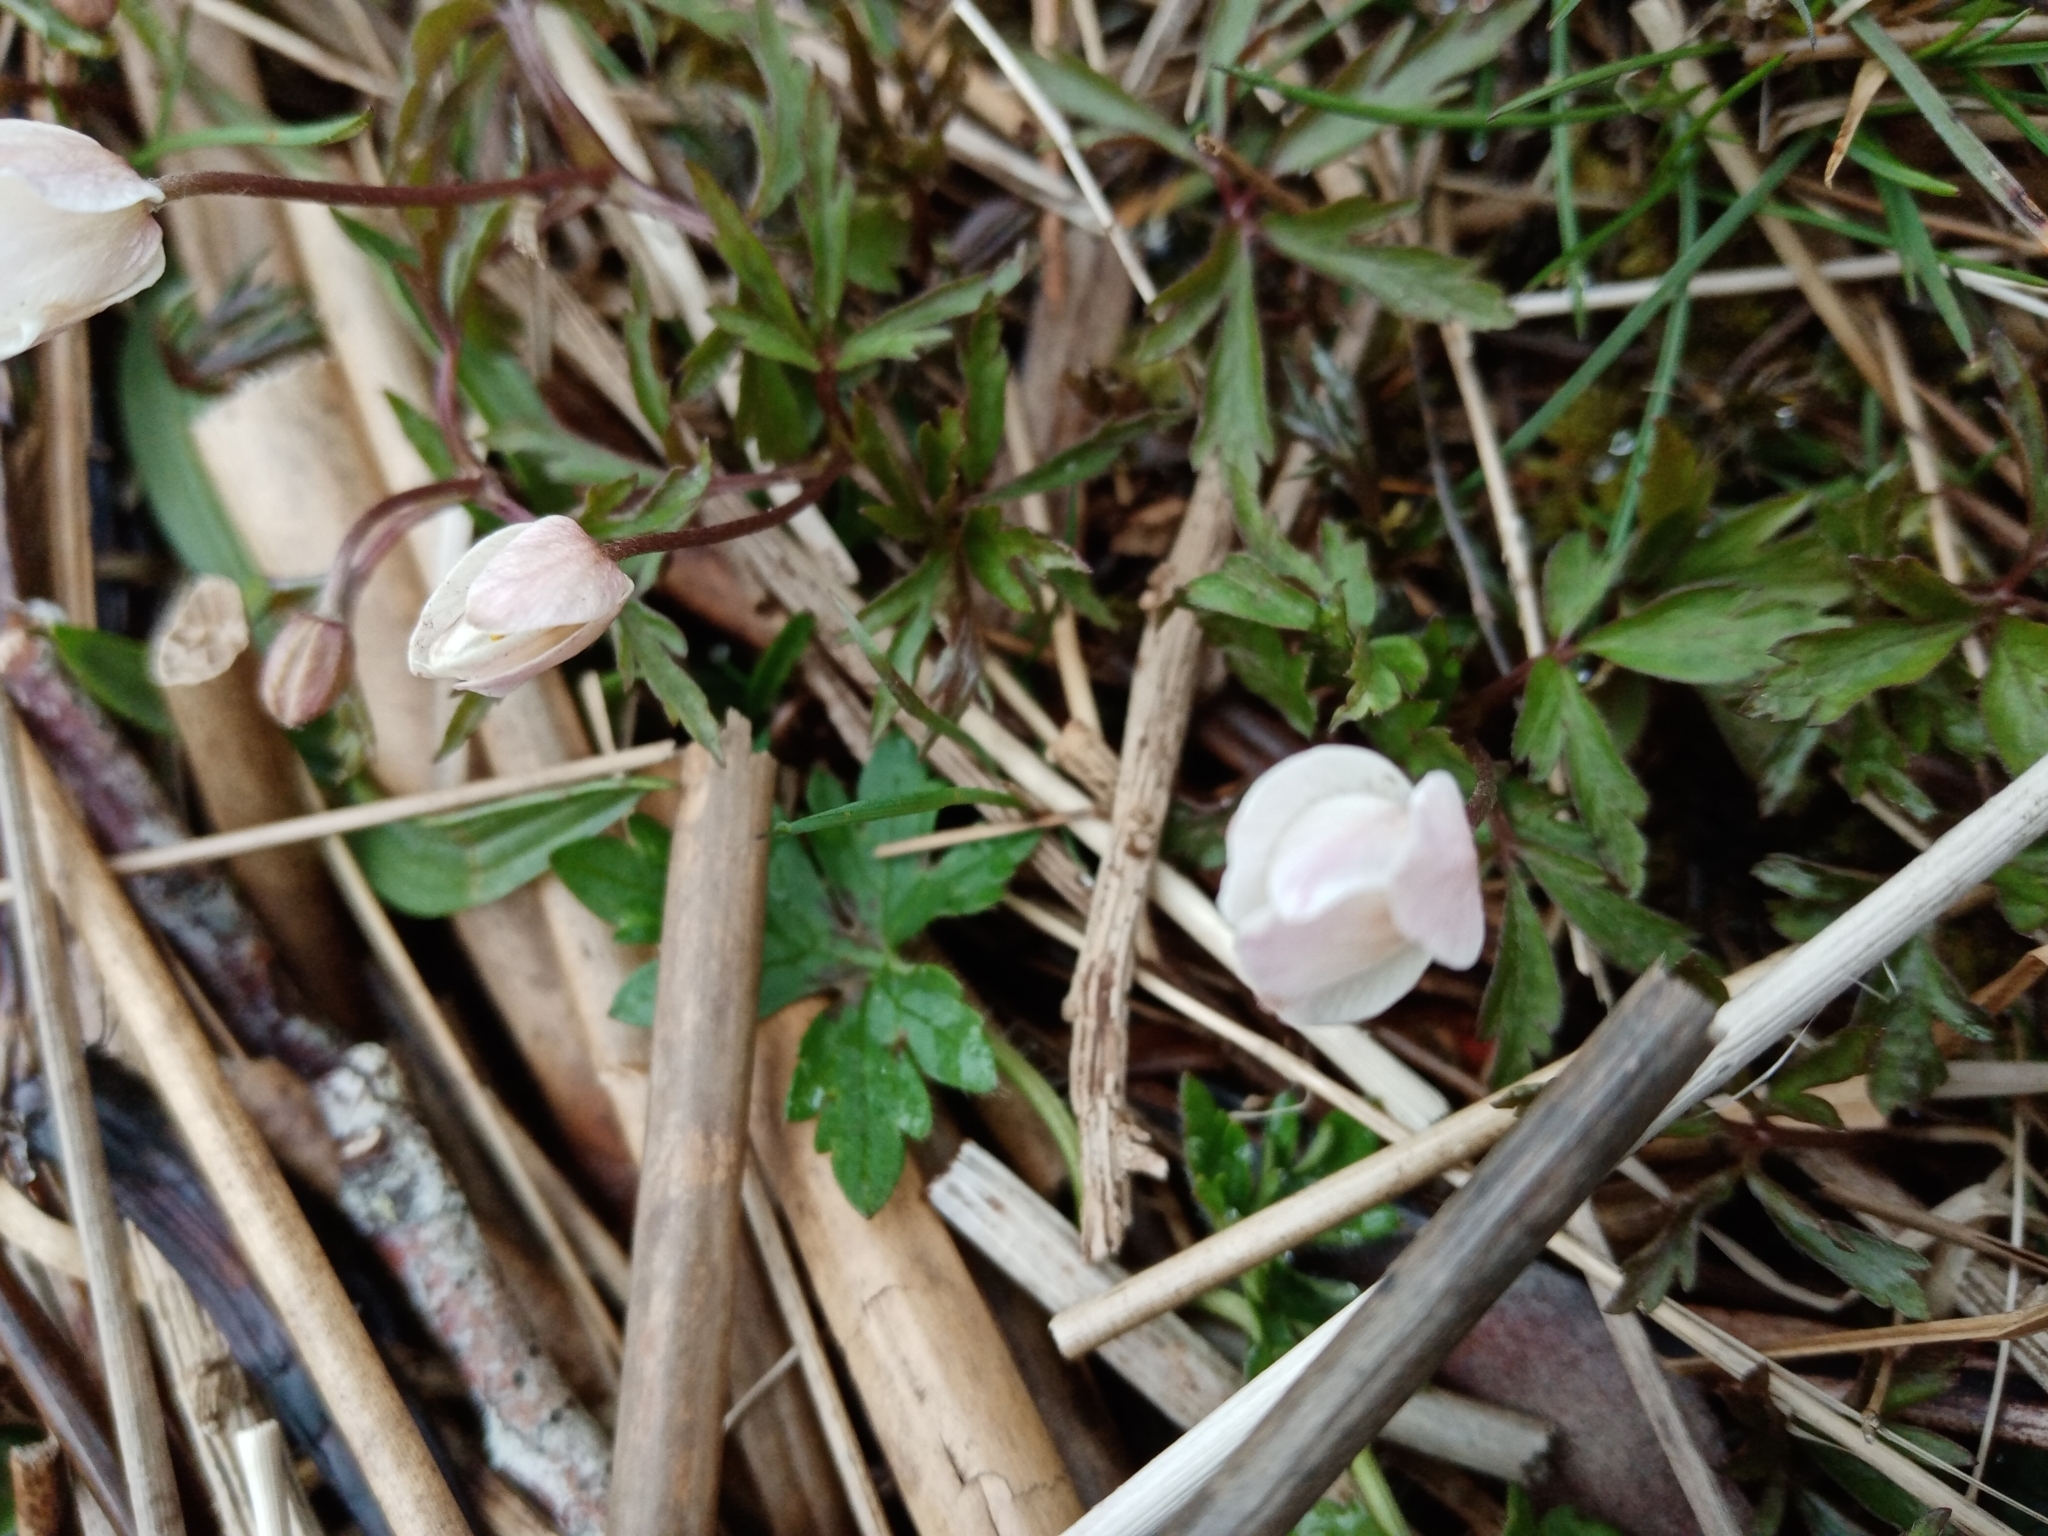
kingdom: Plantae
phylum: Tracheophyta
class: Magnoliopsida
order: Ranunculales
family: Ranunculaceae
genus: Anemone
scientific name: Anemone nemorosa
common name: Wood anemone
